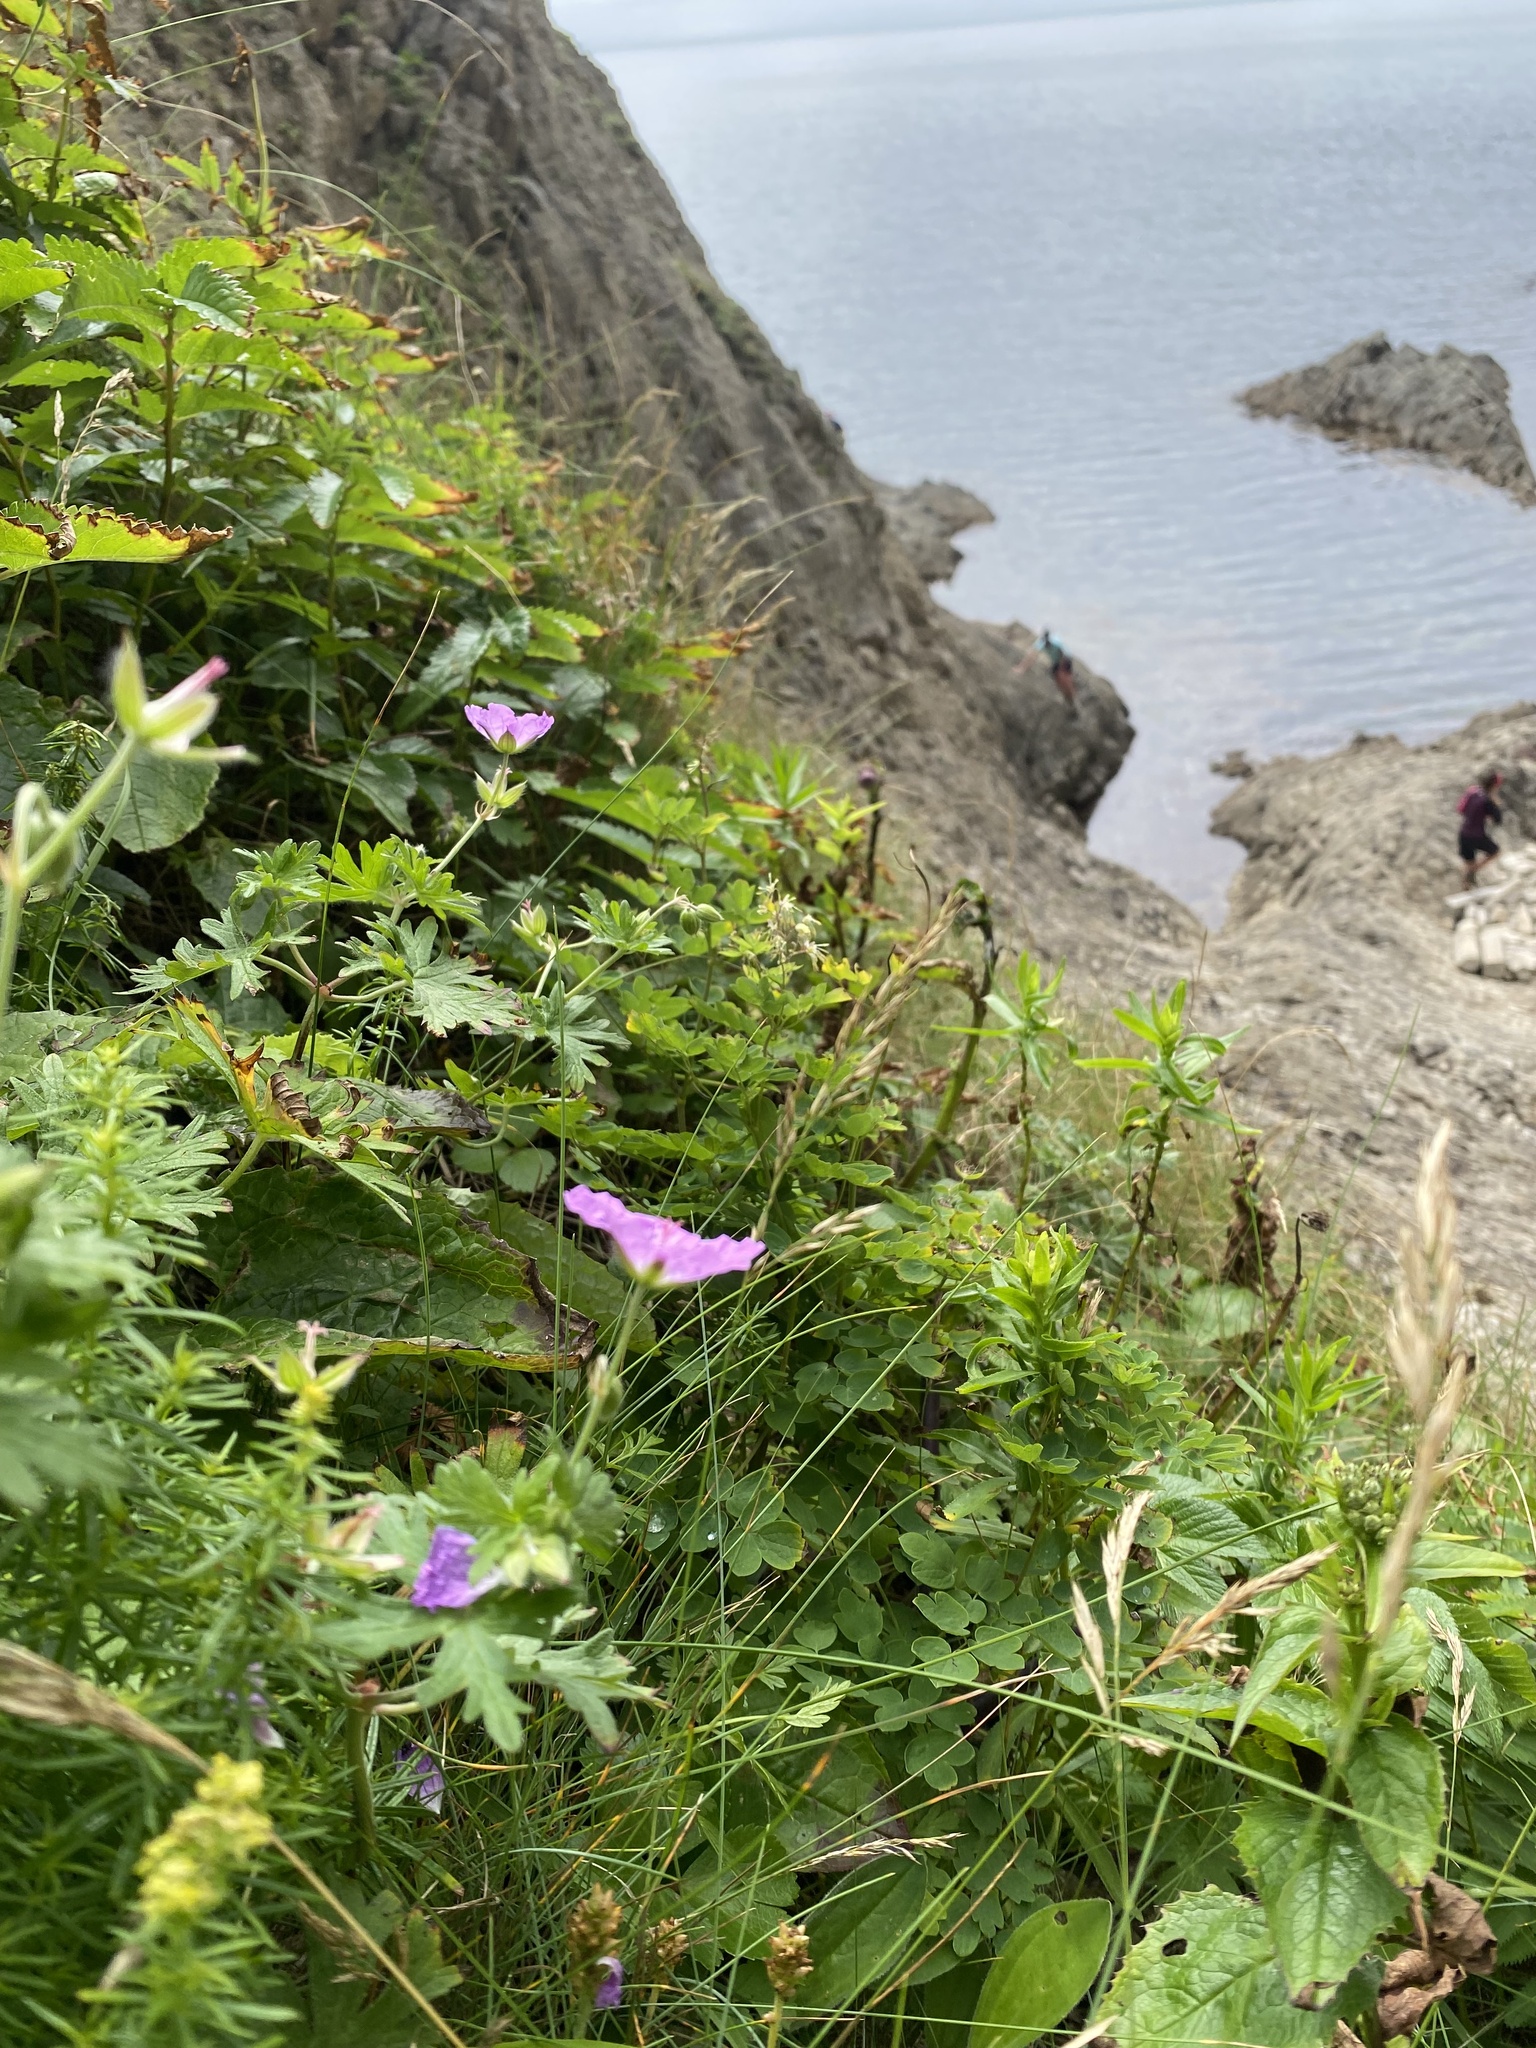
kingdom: Plantae
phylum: Tracheophyta
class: Magnoliopsida
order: Geraniales
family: Geraniaceae
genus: Geranium
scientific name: Geranium erianthum
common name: Northern crane's-bill
